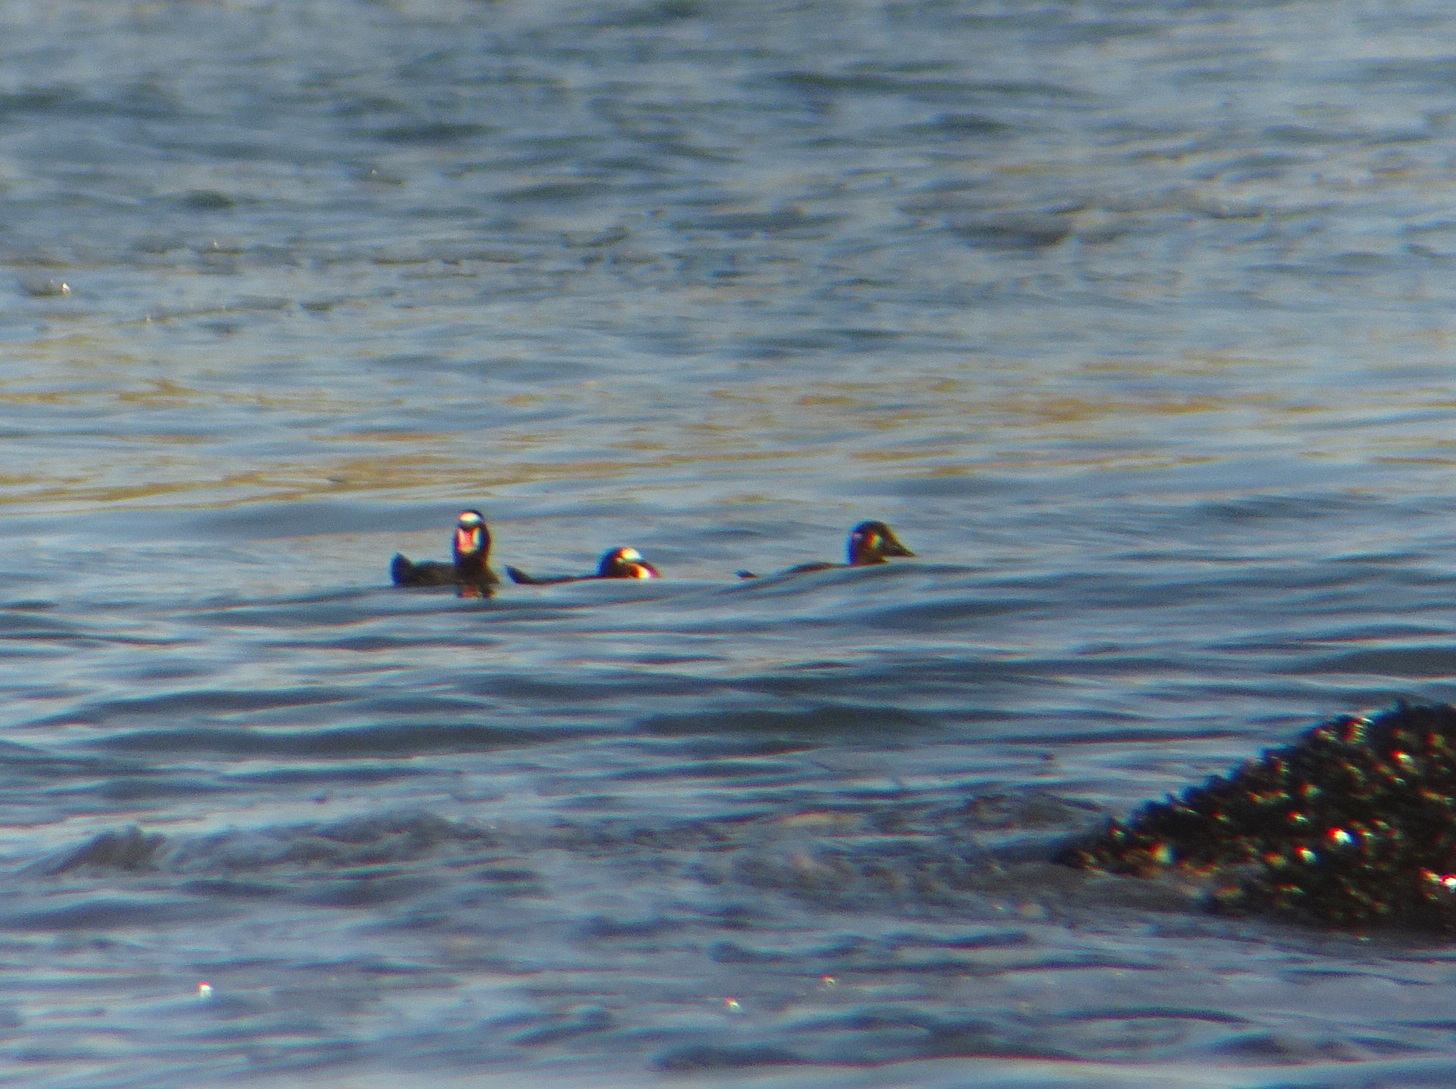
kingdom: Animalia
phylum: Chordata
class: Aves
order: Anseriformes
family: Anatidae
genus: Melanitta
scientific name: Melanitta perspicillata
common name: Surf scoter
